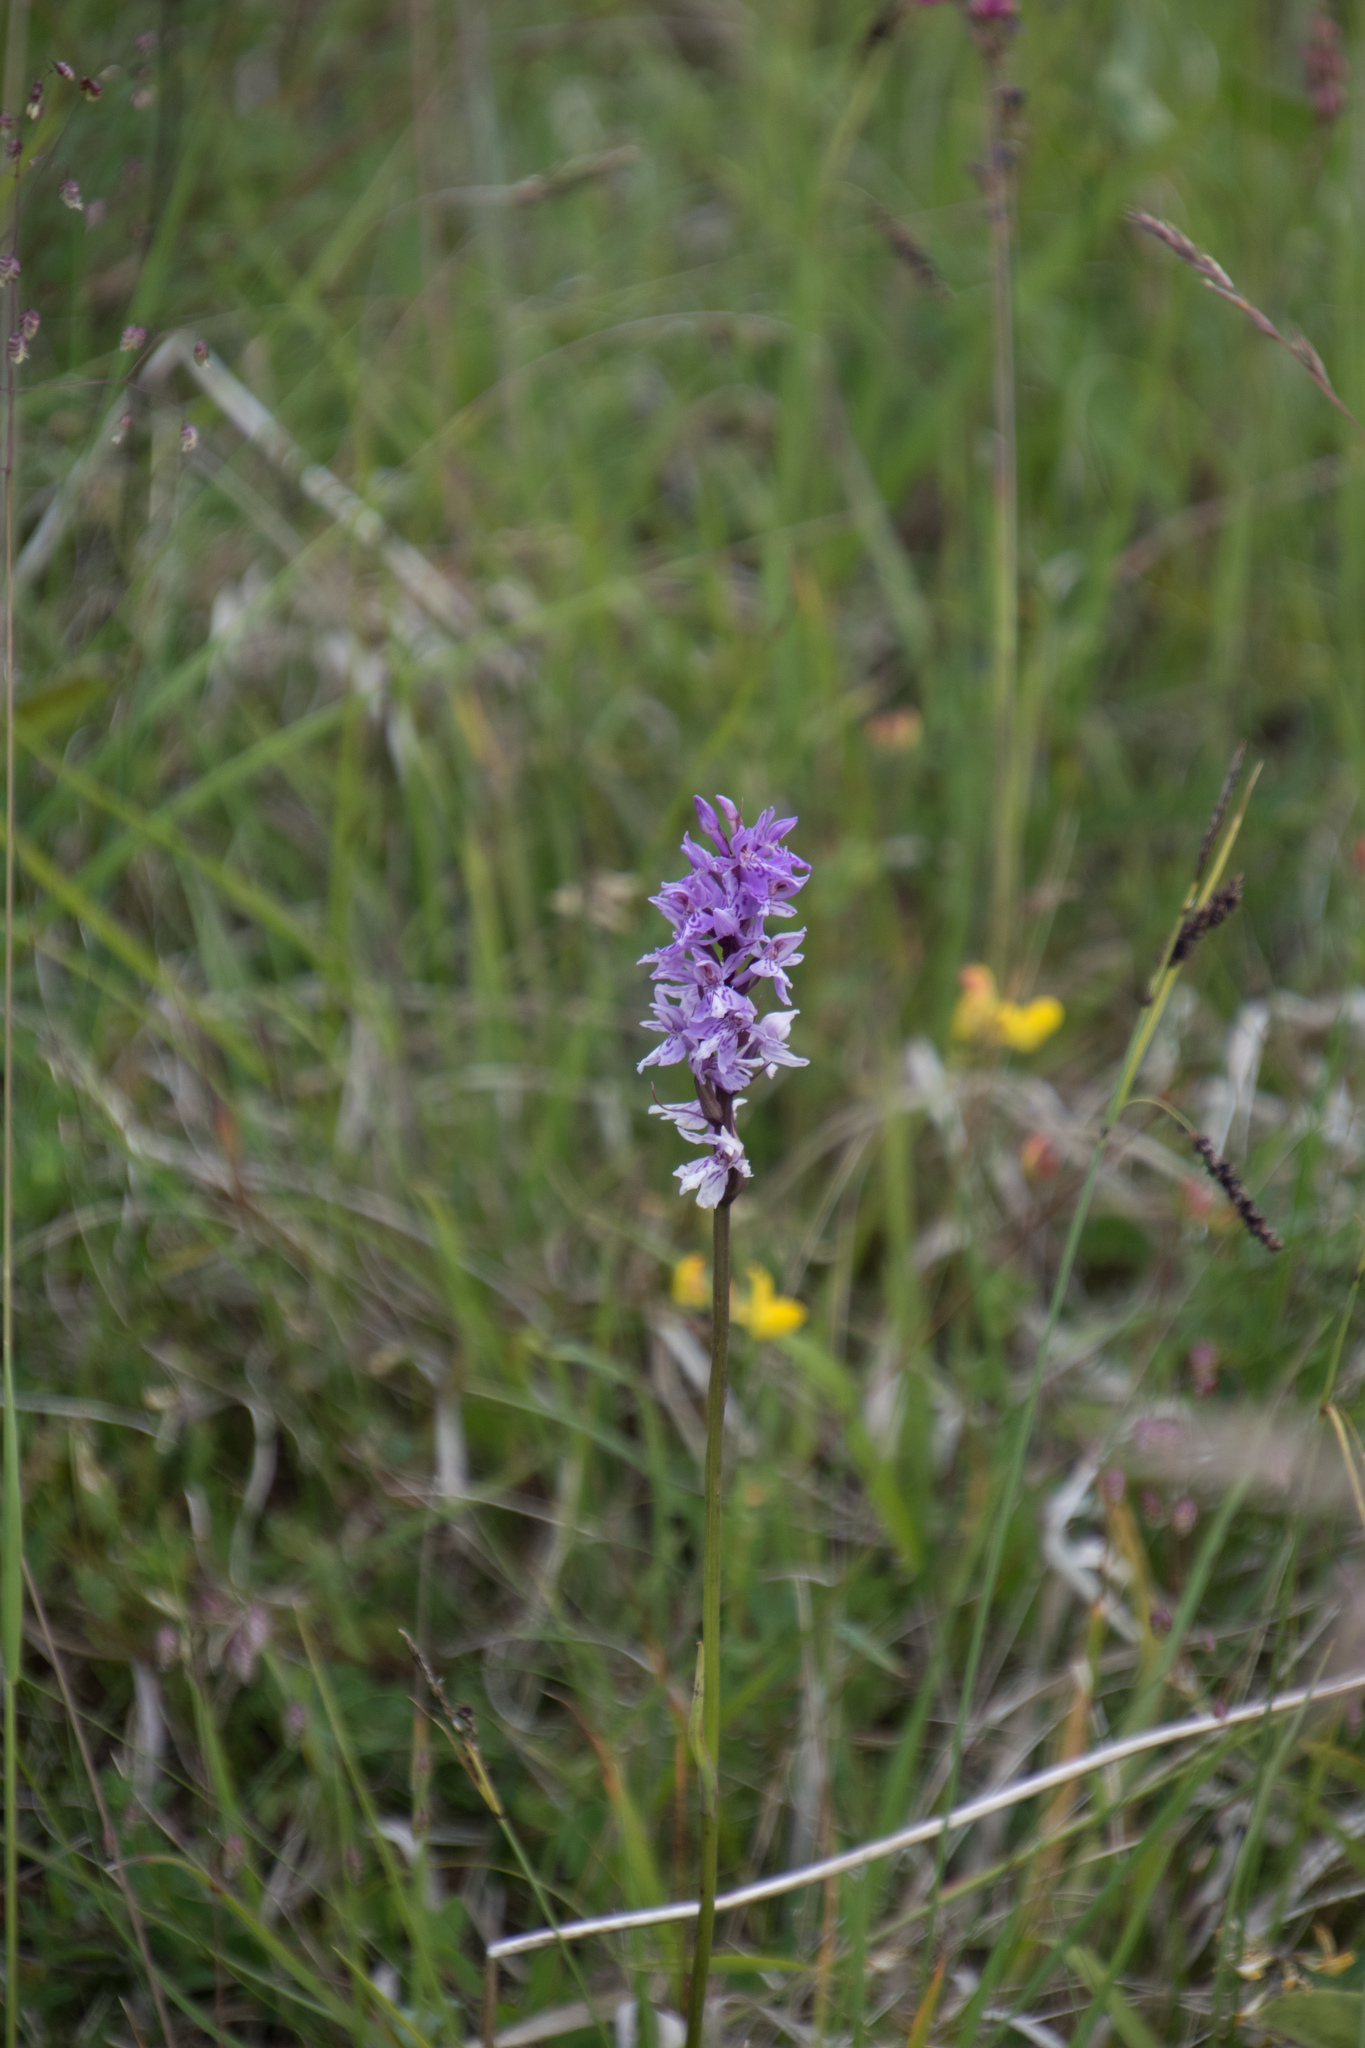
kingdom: Plantae
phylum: Tracheophyta
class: Liliopsida
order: Asparagales
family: Orchidaceae
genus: Dactylorhiza
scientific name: Dactylorhiza maculata
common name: Heath spotted-orchid
